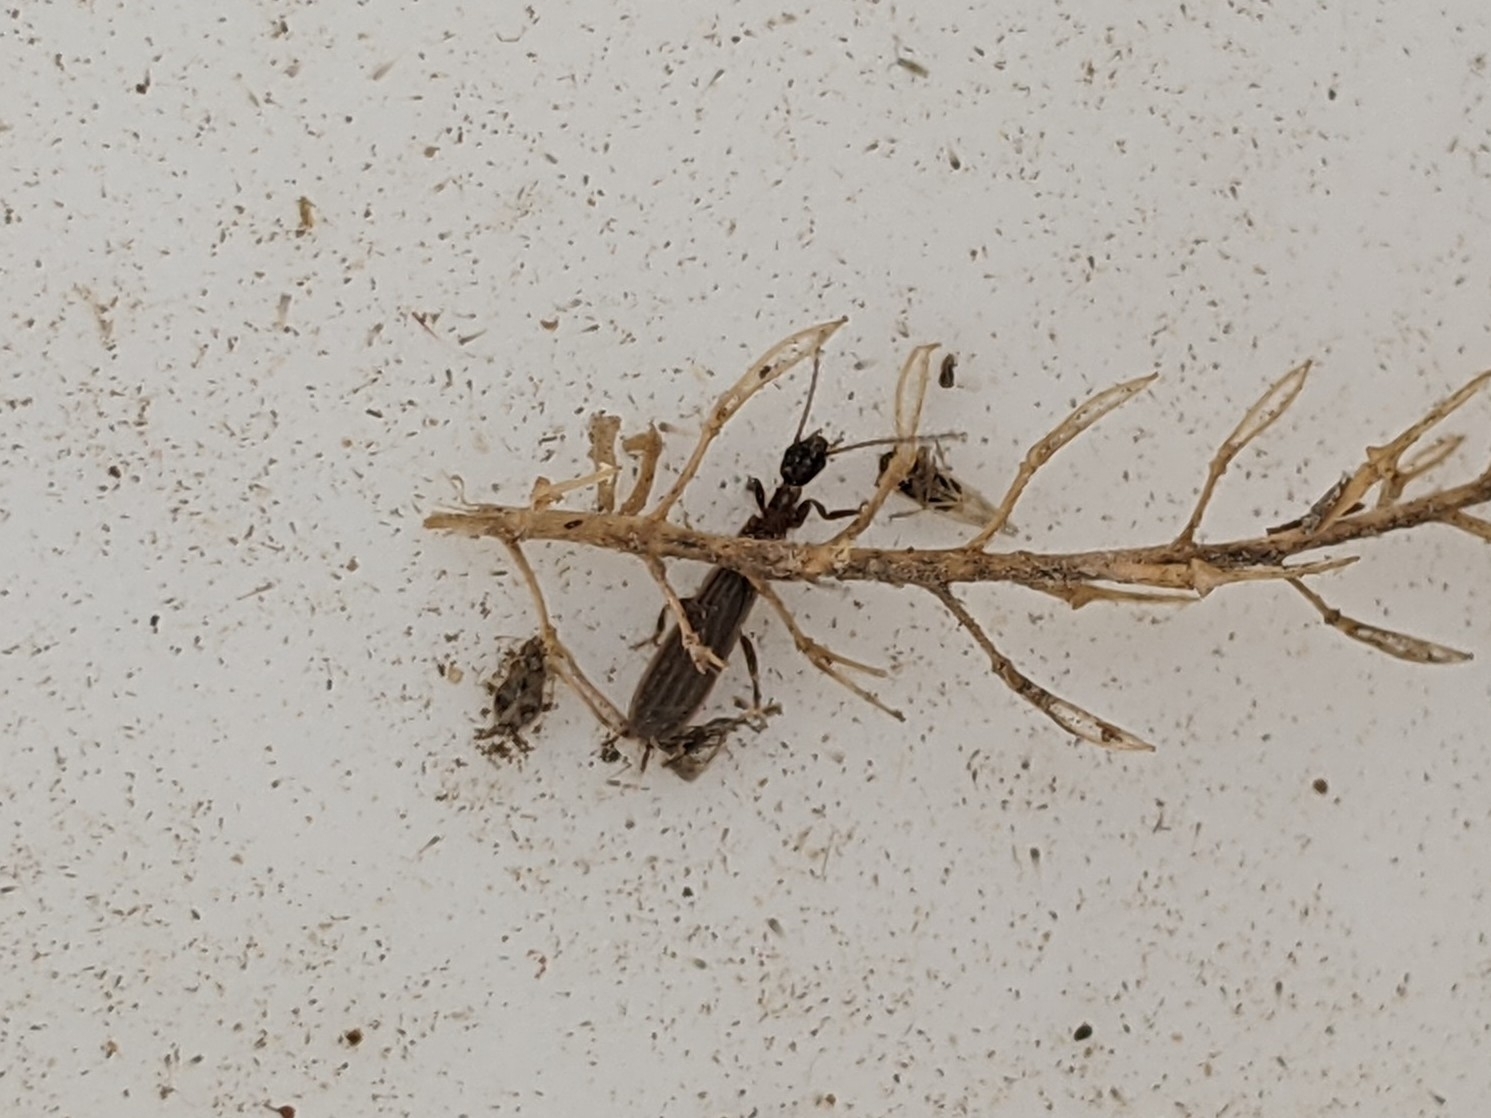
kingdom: Animalia
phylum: Arthropoda
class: Insecta
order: Embioptera
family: Oligotomidae
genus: Oligotoma
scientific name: Oligotoma nigra
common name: Black webspinner
